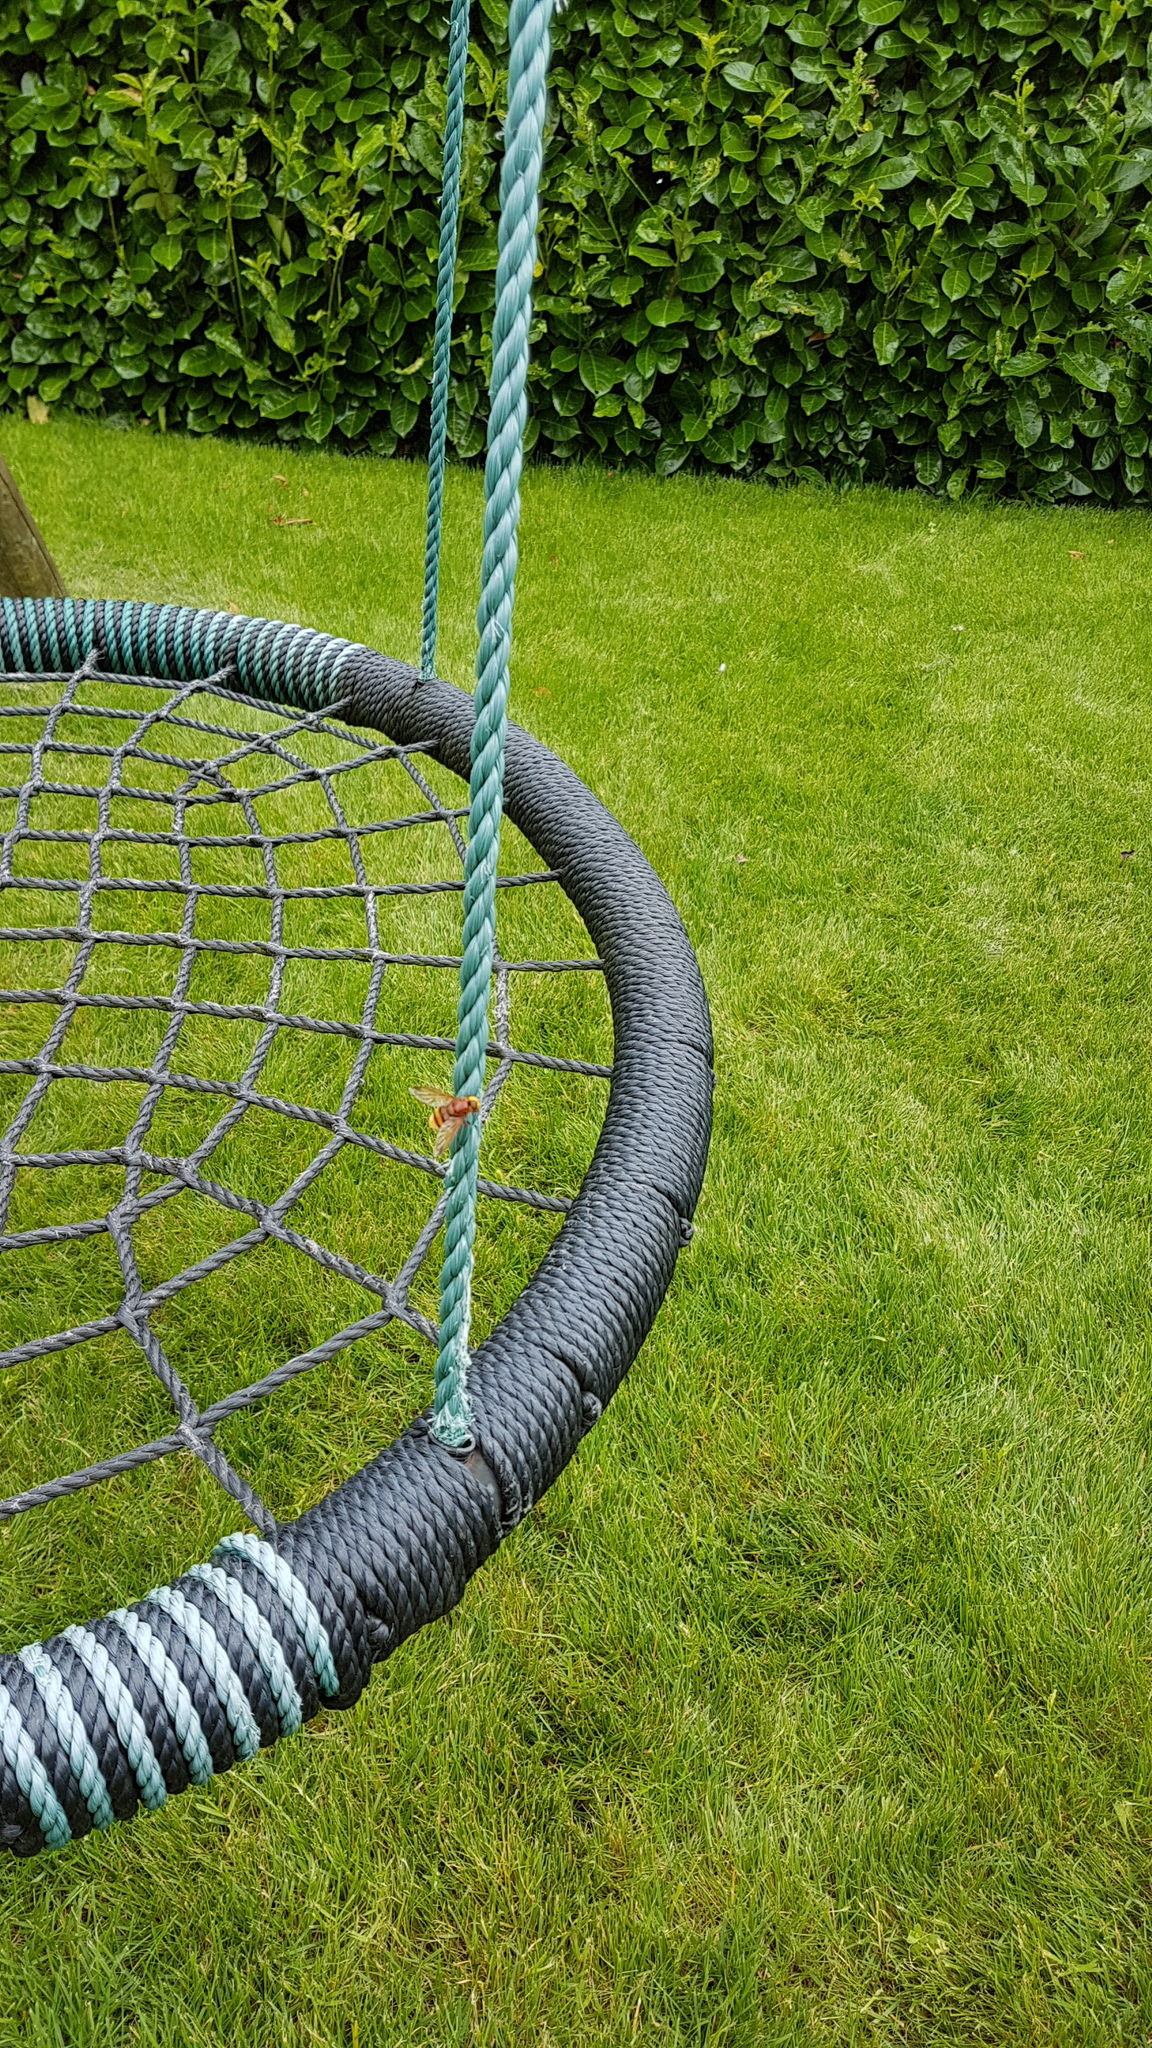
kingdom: Animalia
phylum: Arthropoda
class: Insecta
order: Diptera
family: Syrphidae
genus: Volucella
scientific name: Volucella zonaria
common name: Hornet hoverfly
